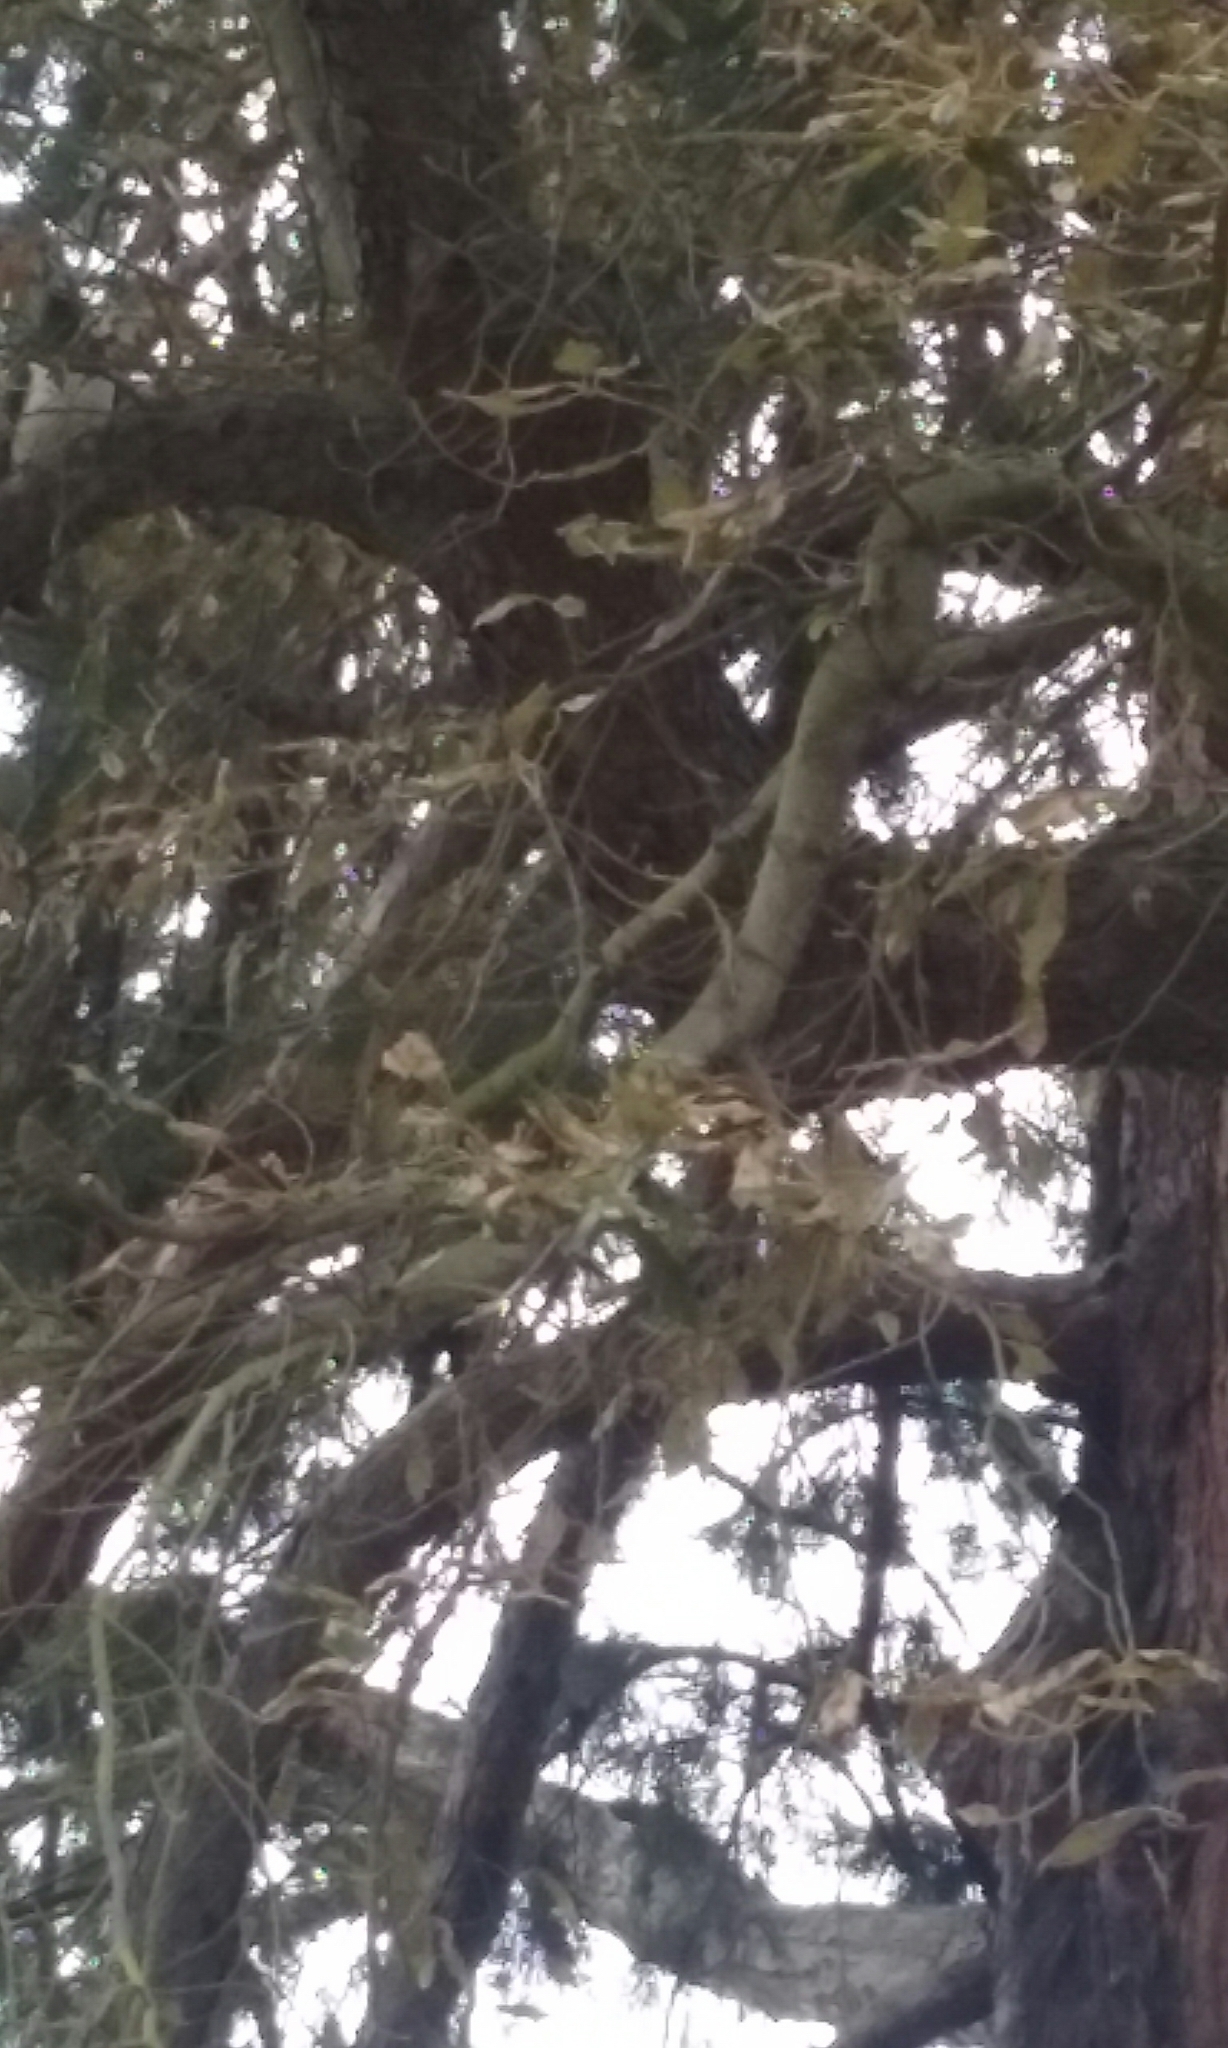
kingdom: Animalia
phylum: Chordata
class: Aves
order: Columbiformes
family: Columbidae
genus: Hemiphaga
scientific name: Hemiphaga novaeseelandiae
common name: New zealand pigeon
